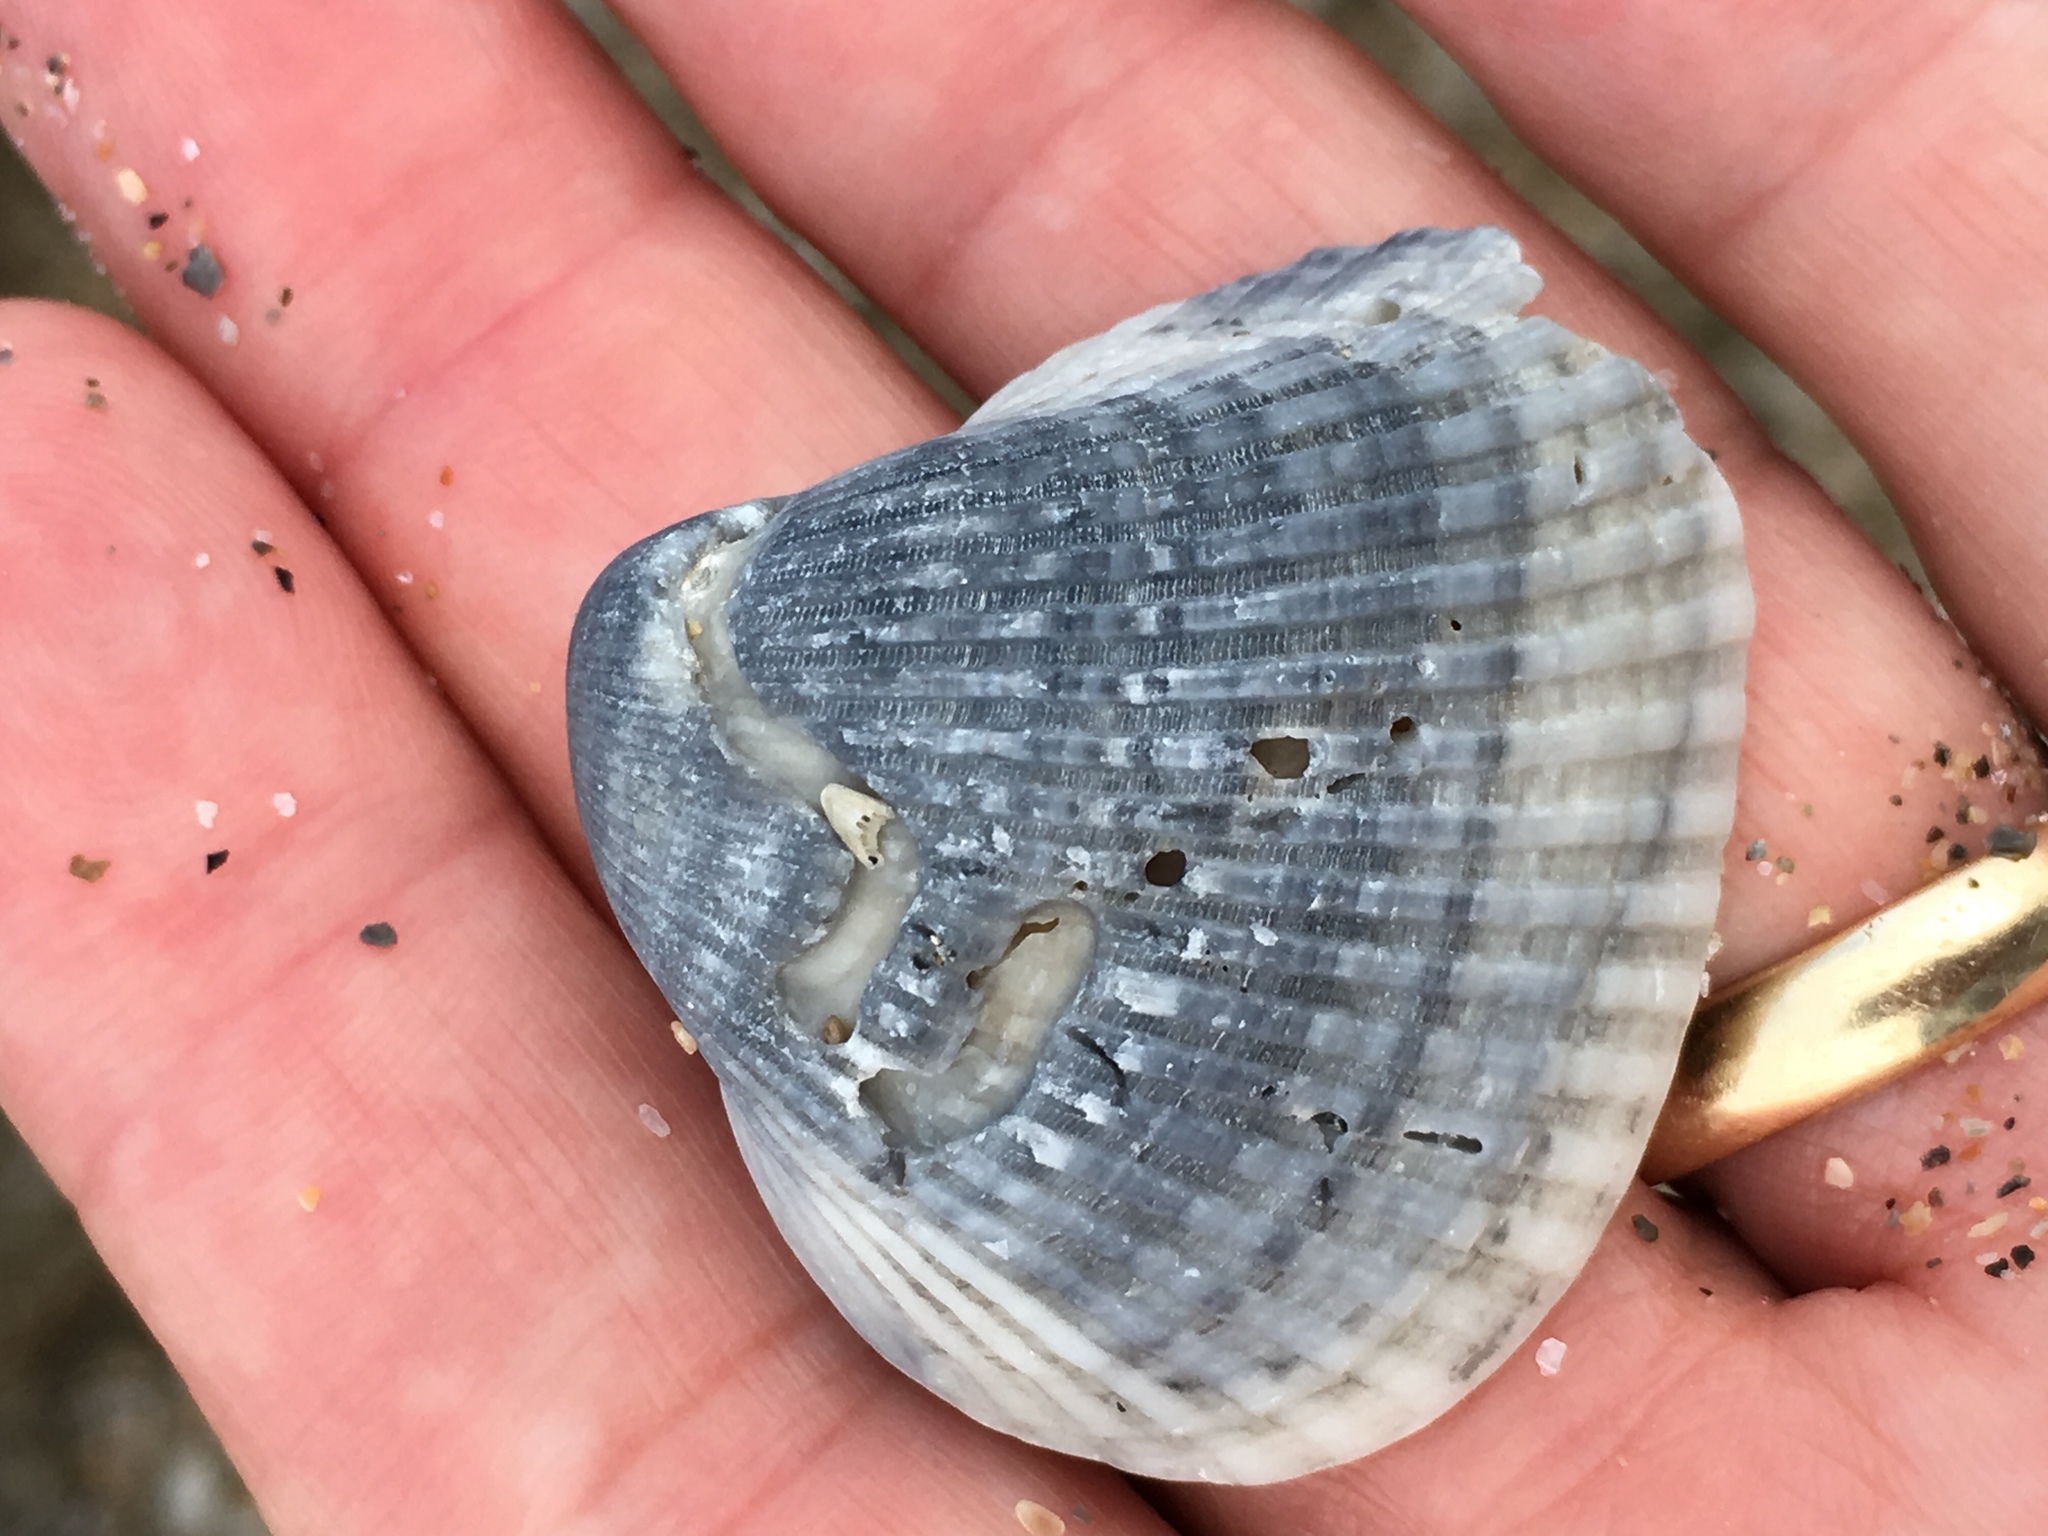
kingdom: Animalia
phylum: Mollusca
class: Bivalvia
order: Arcida
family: Noetiidae
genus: Noetia
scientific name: Noetia ponderosa
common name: Ponderous ark
